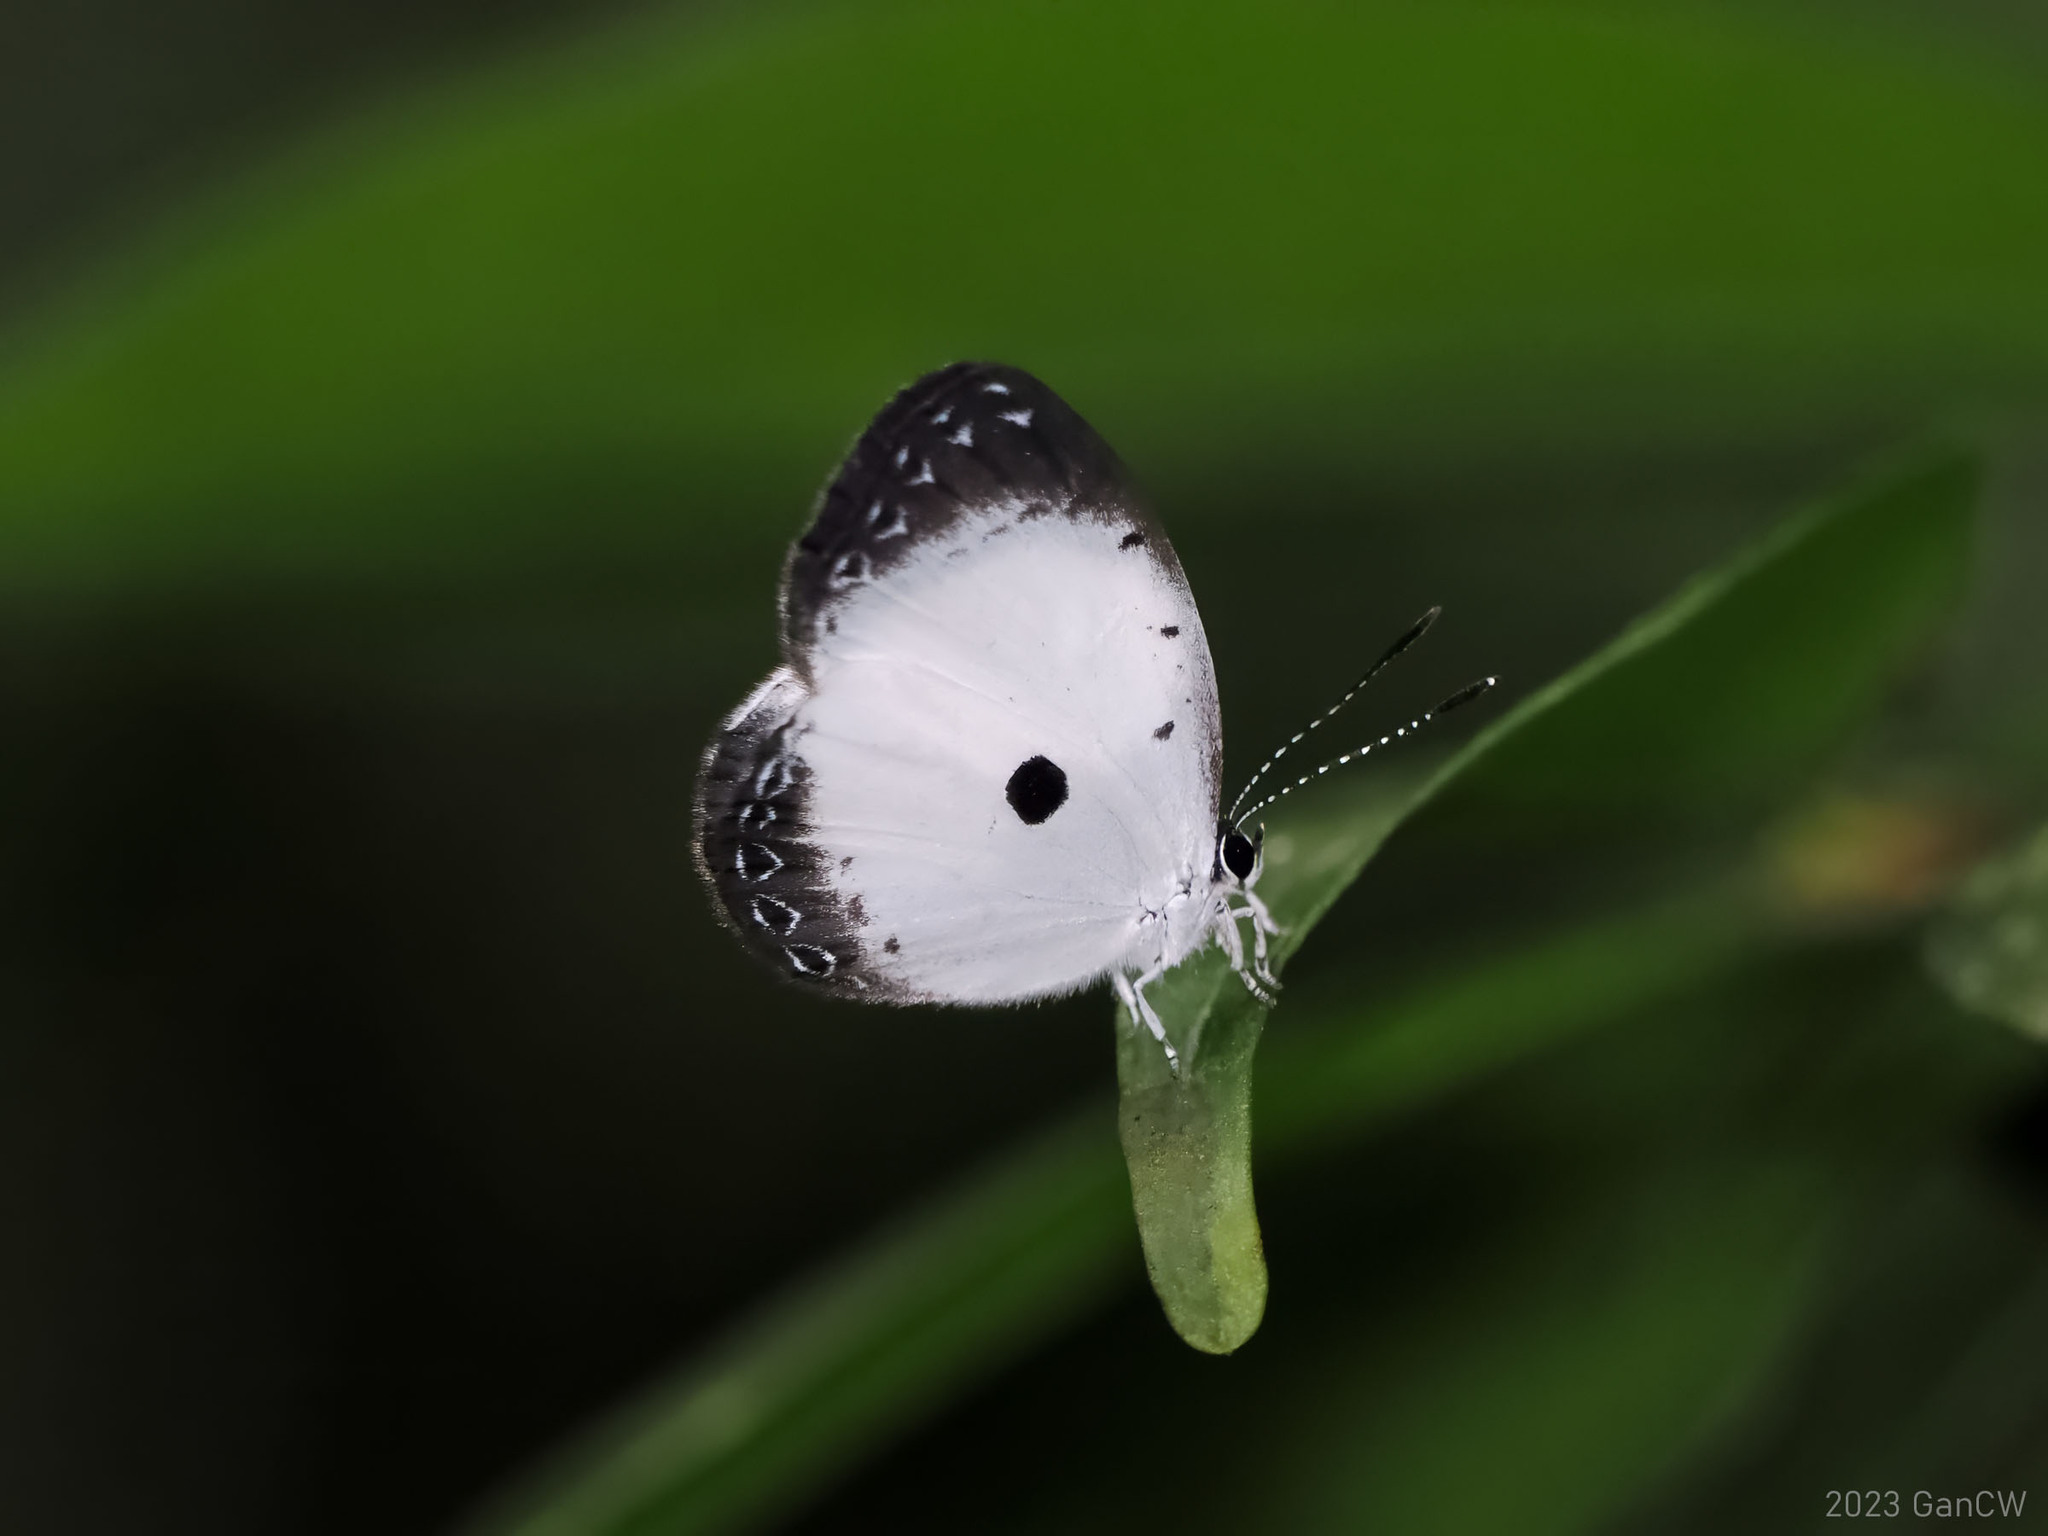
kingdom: Animalia
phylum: Arthropoda
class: Insecta
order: Lepidoptera
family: Lycaenidae
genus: Pithecops
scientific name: Pithecops dionisius
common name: Pied blue
